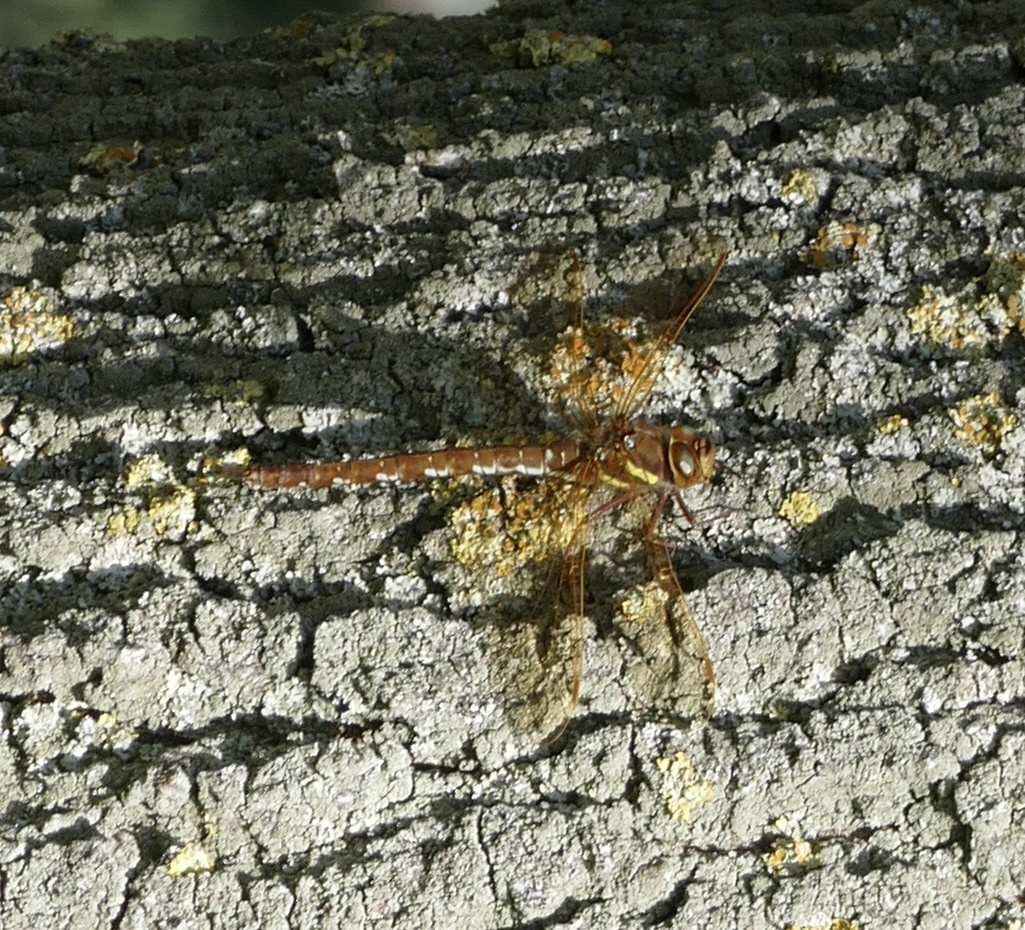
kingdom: Animalia
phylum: Arthropoda
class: Insecta
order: Odonata
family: Aeshnidae
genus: Aeshna
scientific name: Aeshna grandis
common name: Brown hawker
